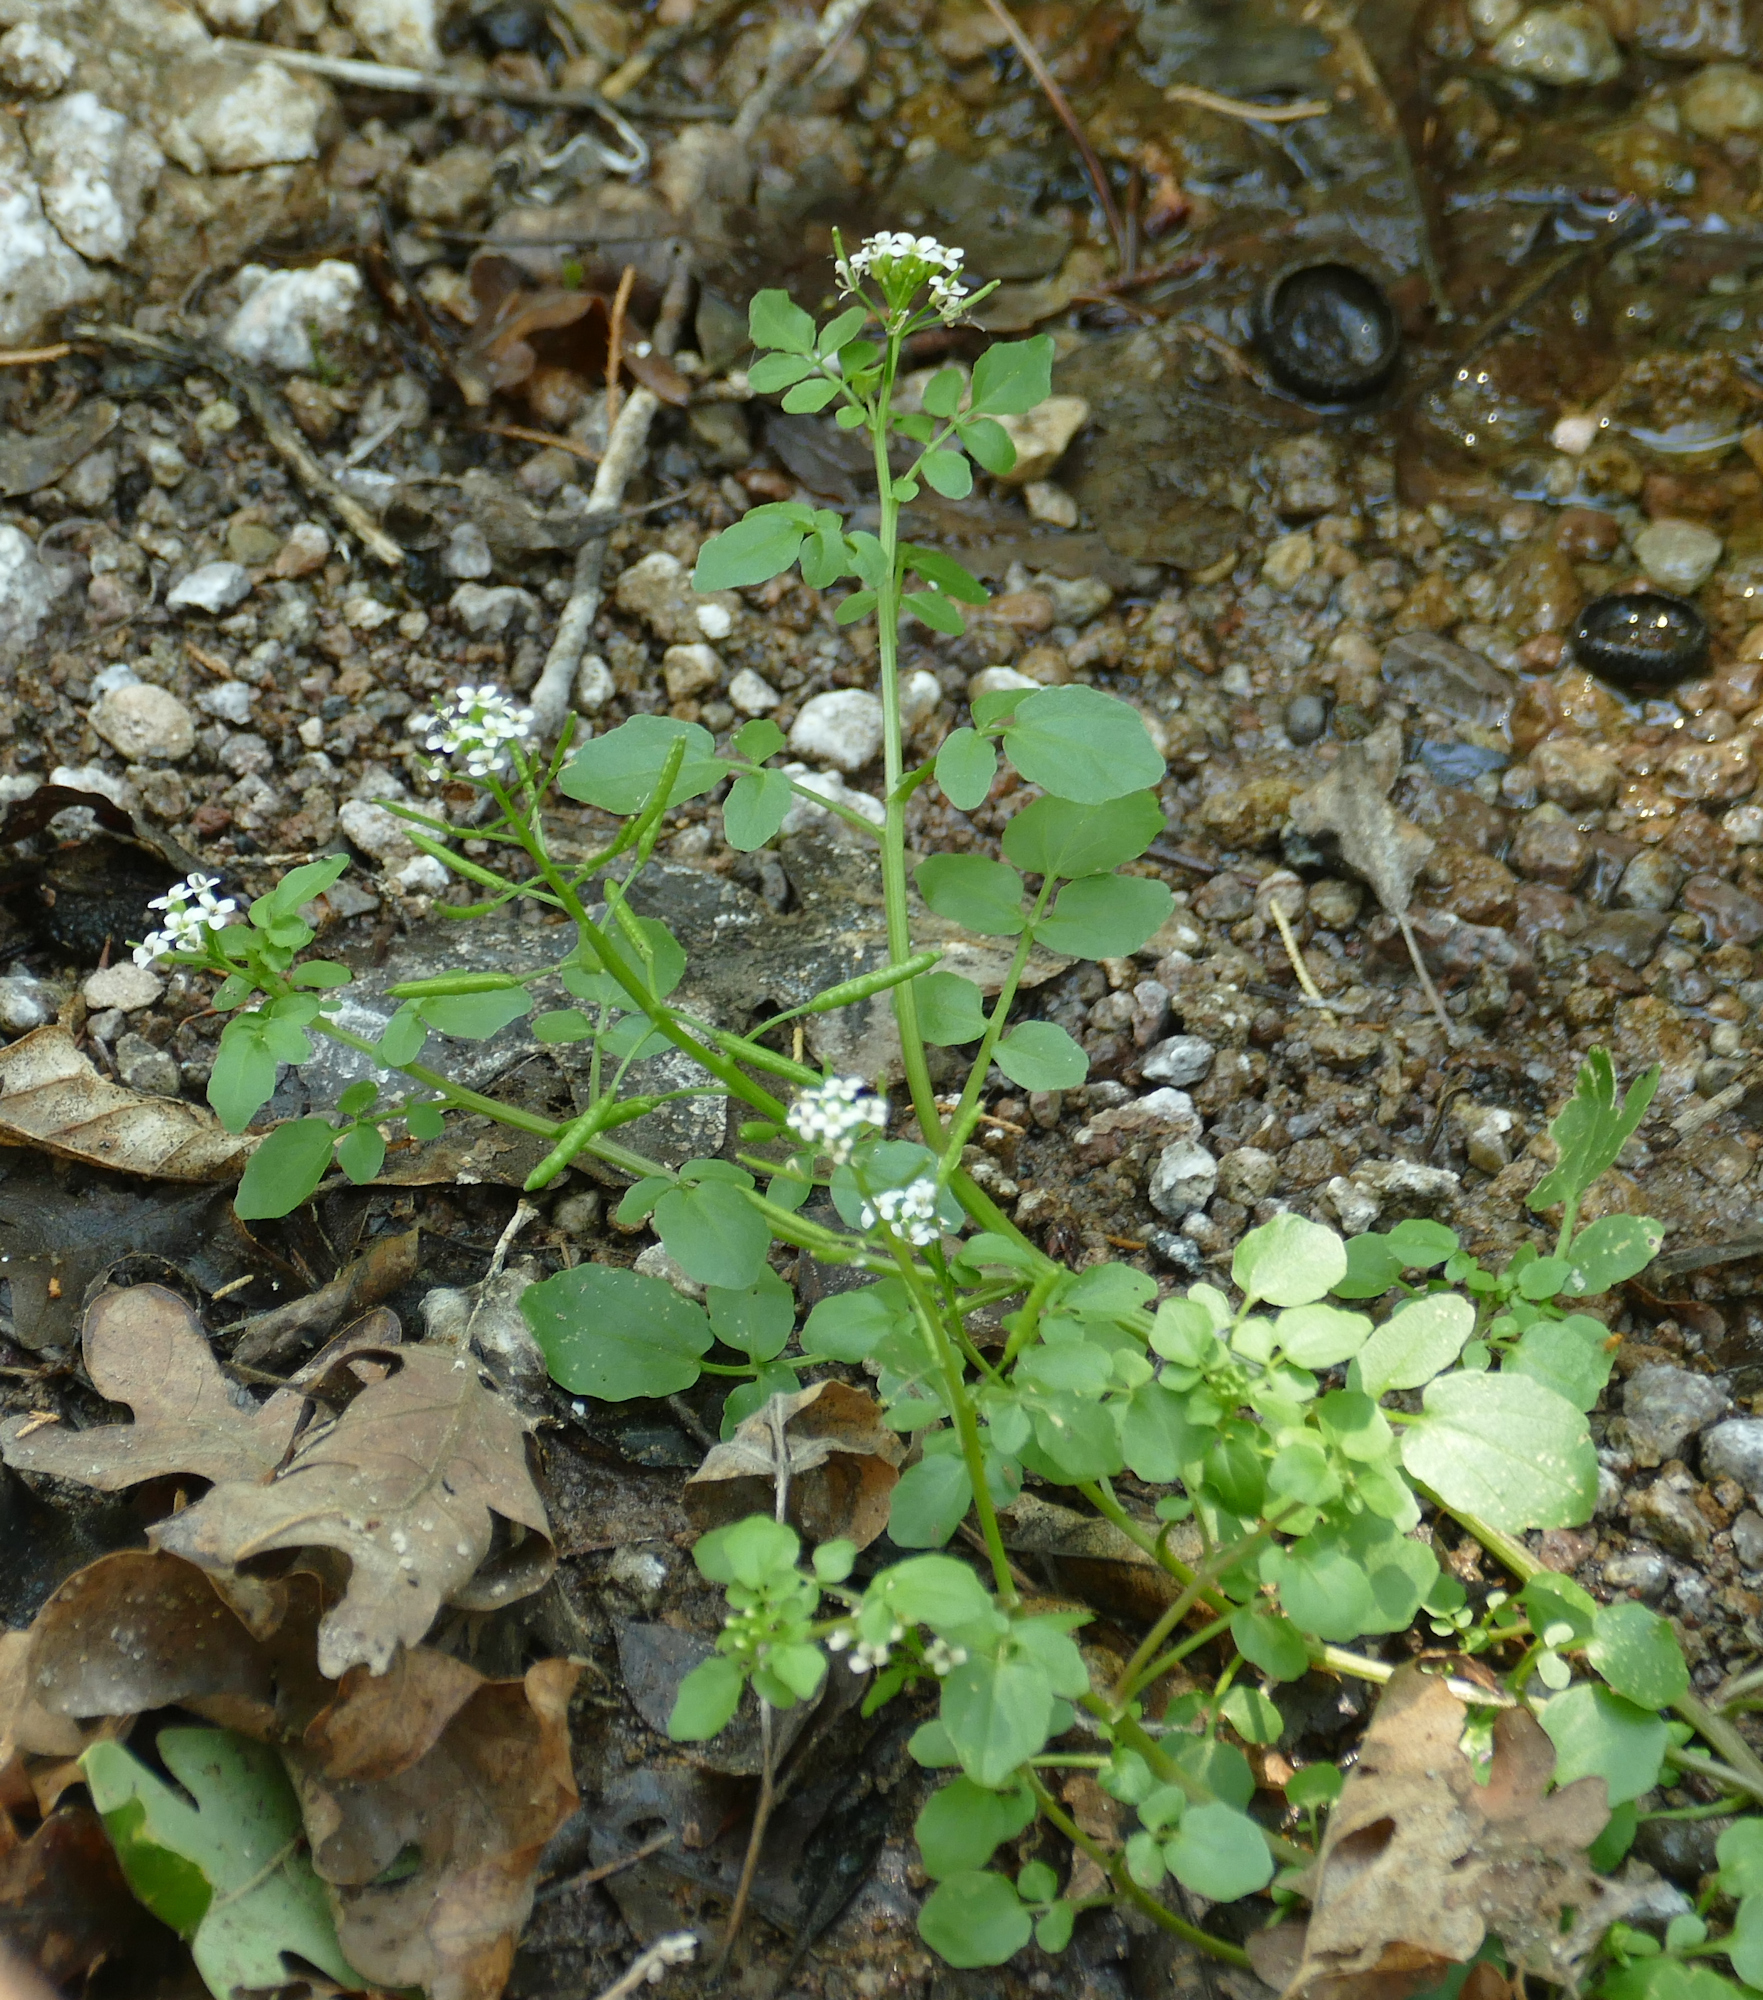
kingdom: Plantae
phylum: Tracheophyta
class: Magnoliopsida
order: Brassicales
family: Brassicaceae
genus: Nasturtium
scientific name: Nasturtium officinale
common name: Watercress
